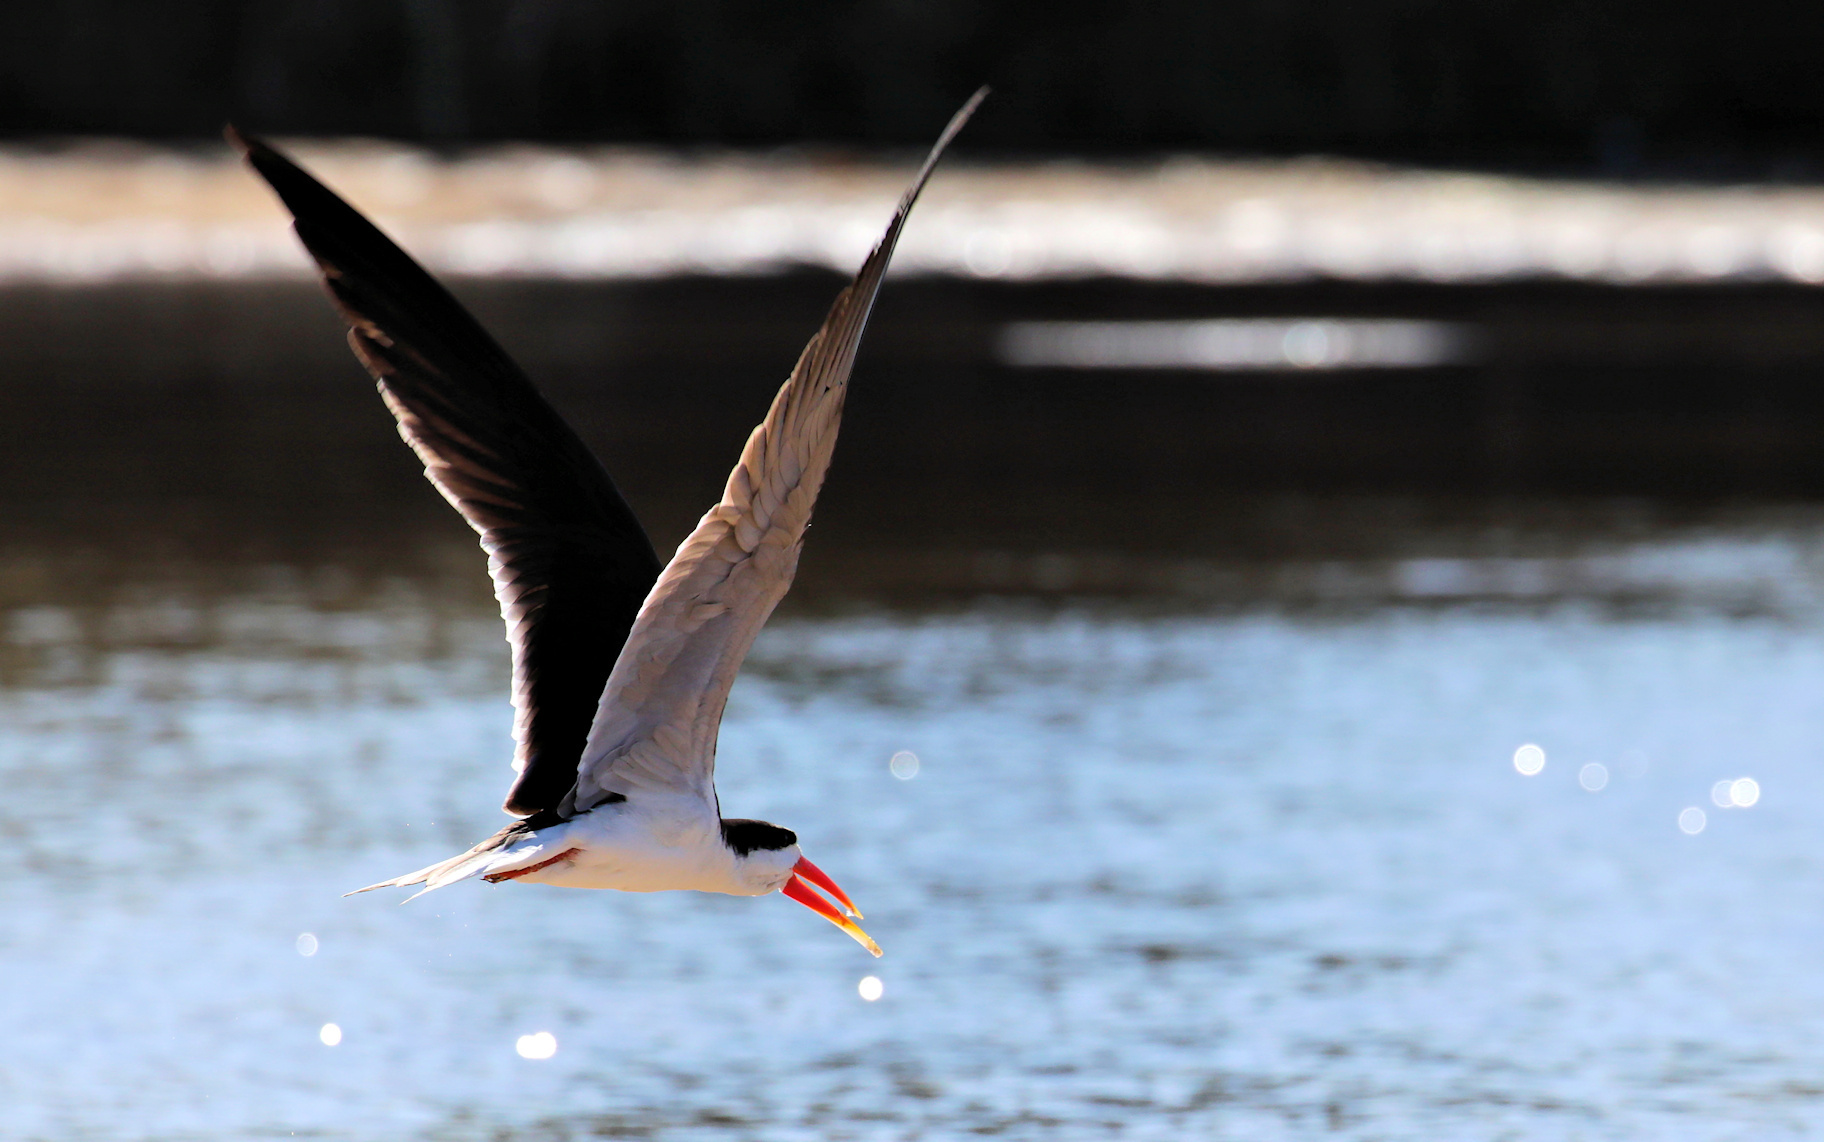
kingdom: Animalia
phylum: Chordata
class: Aves
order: Charadriiformes
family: Laridae
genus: Rynchops
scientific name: Rynchops flavirostris
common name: African skimmer
